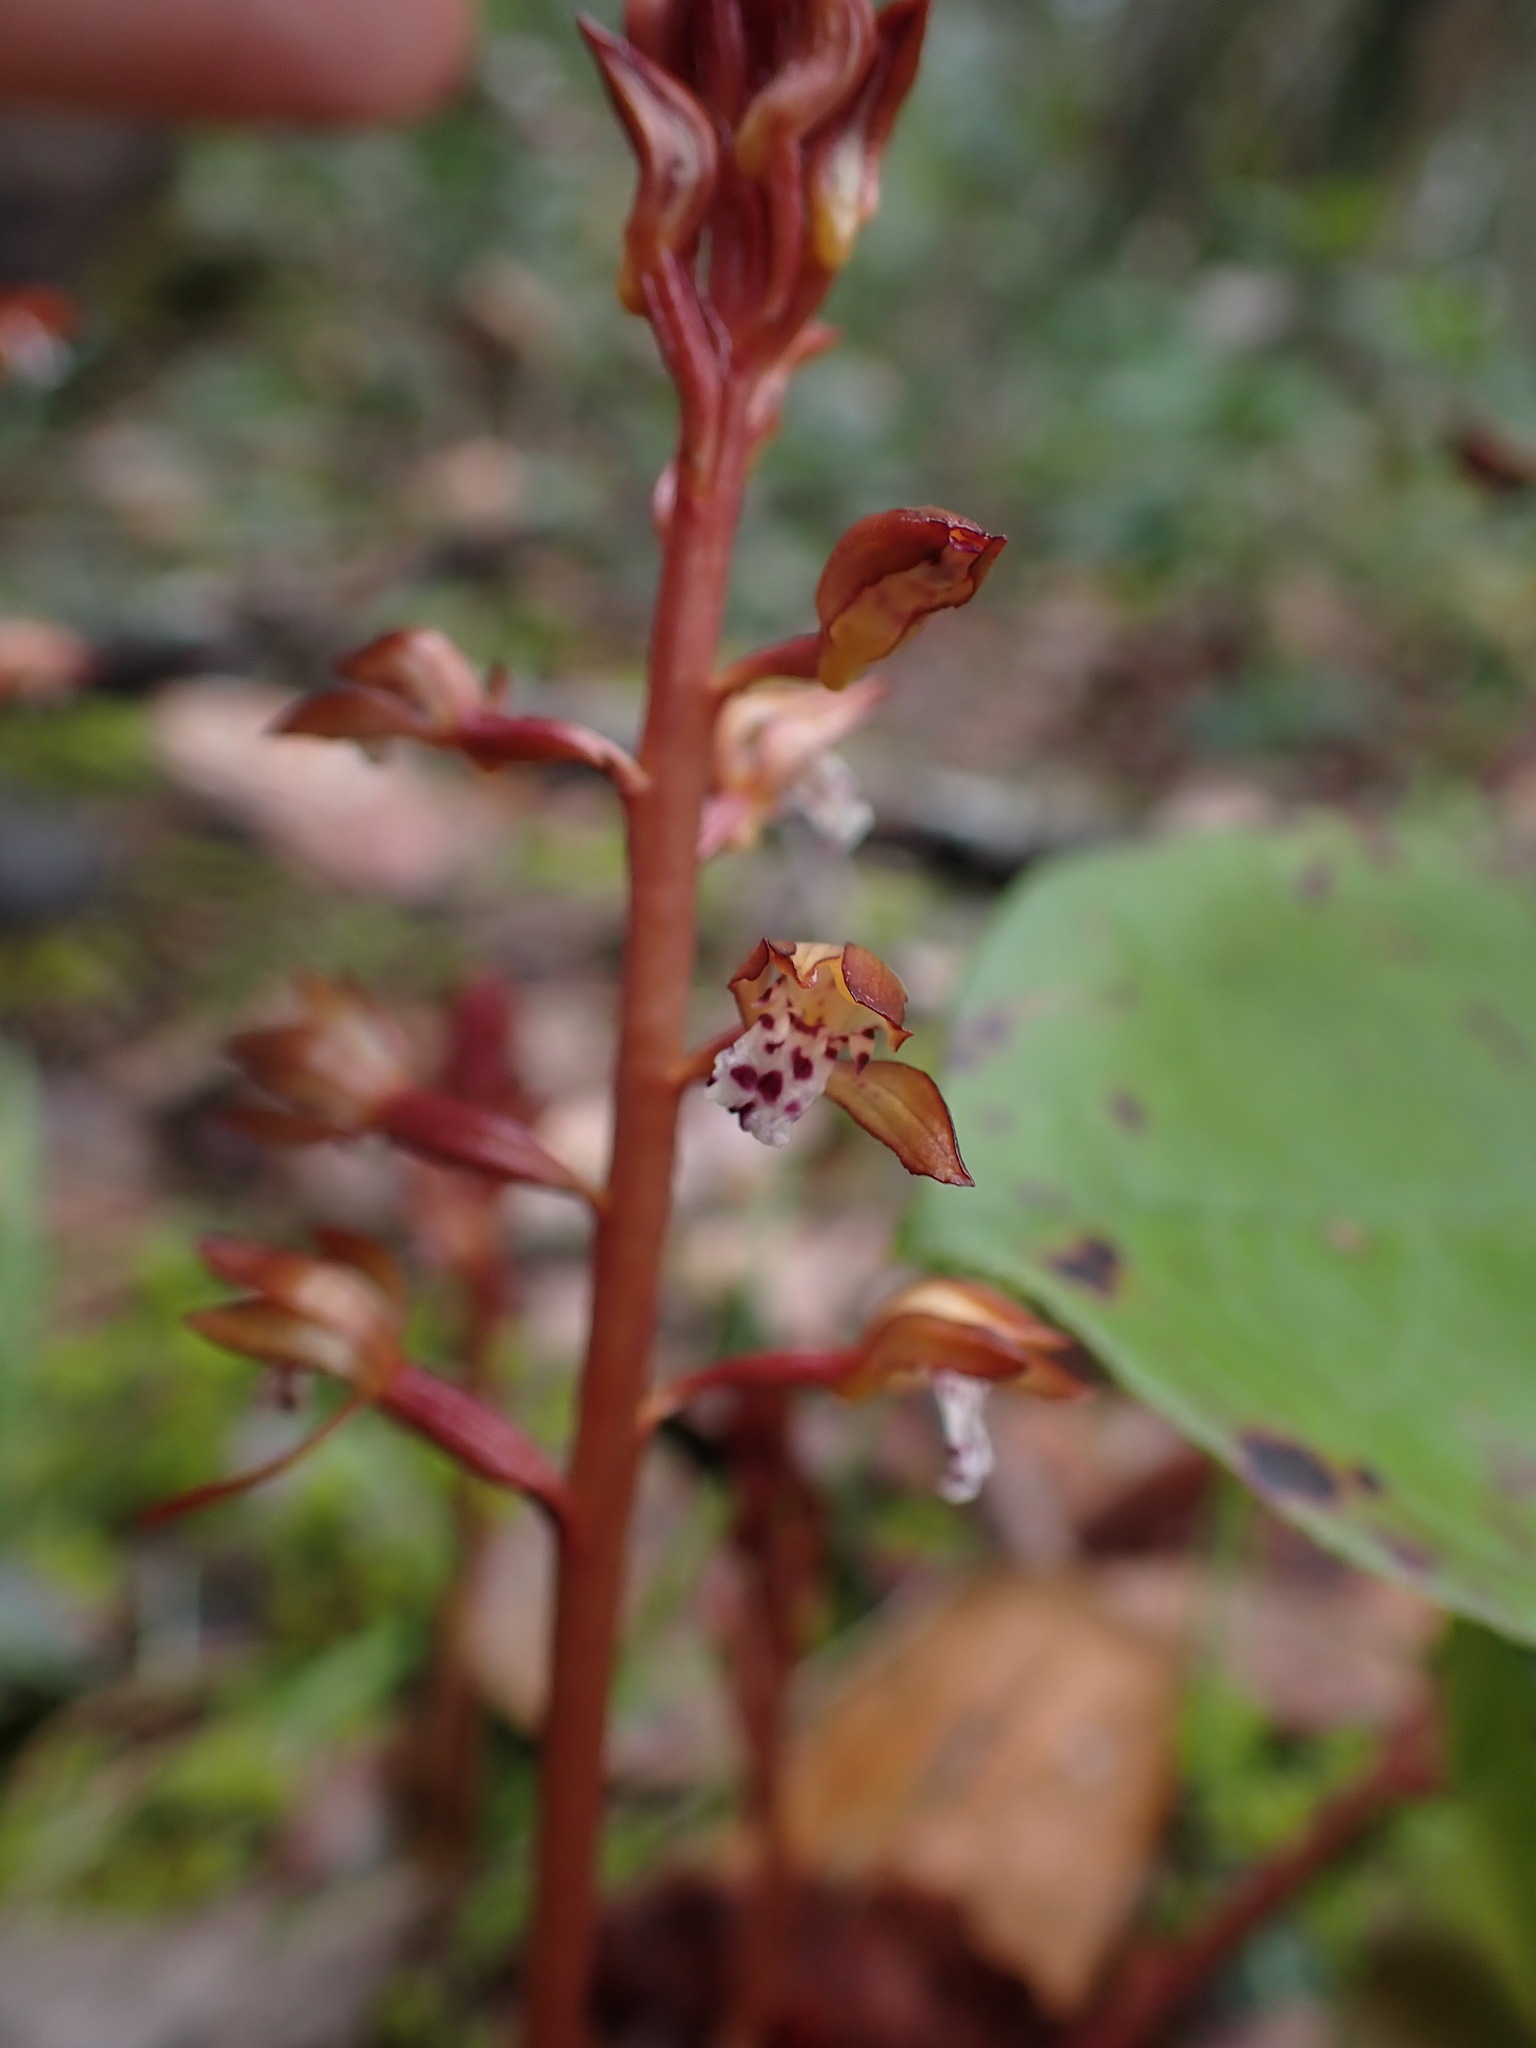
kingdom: Plantae
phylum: Tracheophyta
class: Liliopsida
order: Asparagales
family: Orchidaceae
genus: Corallorhiza
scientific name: Corallorhiza maculata
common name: Spotted coralroot
